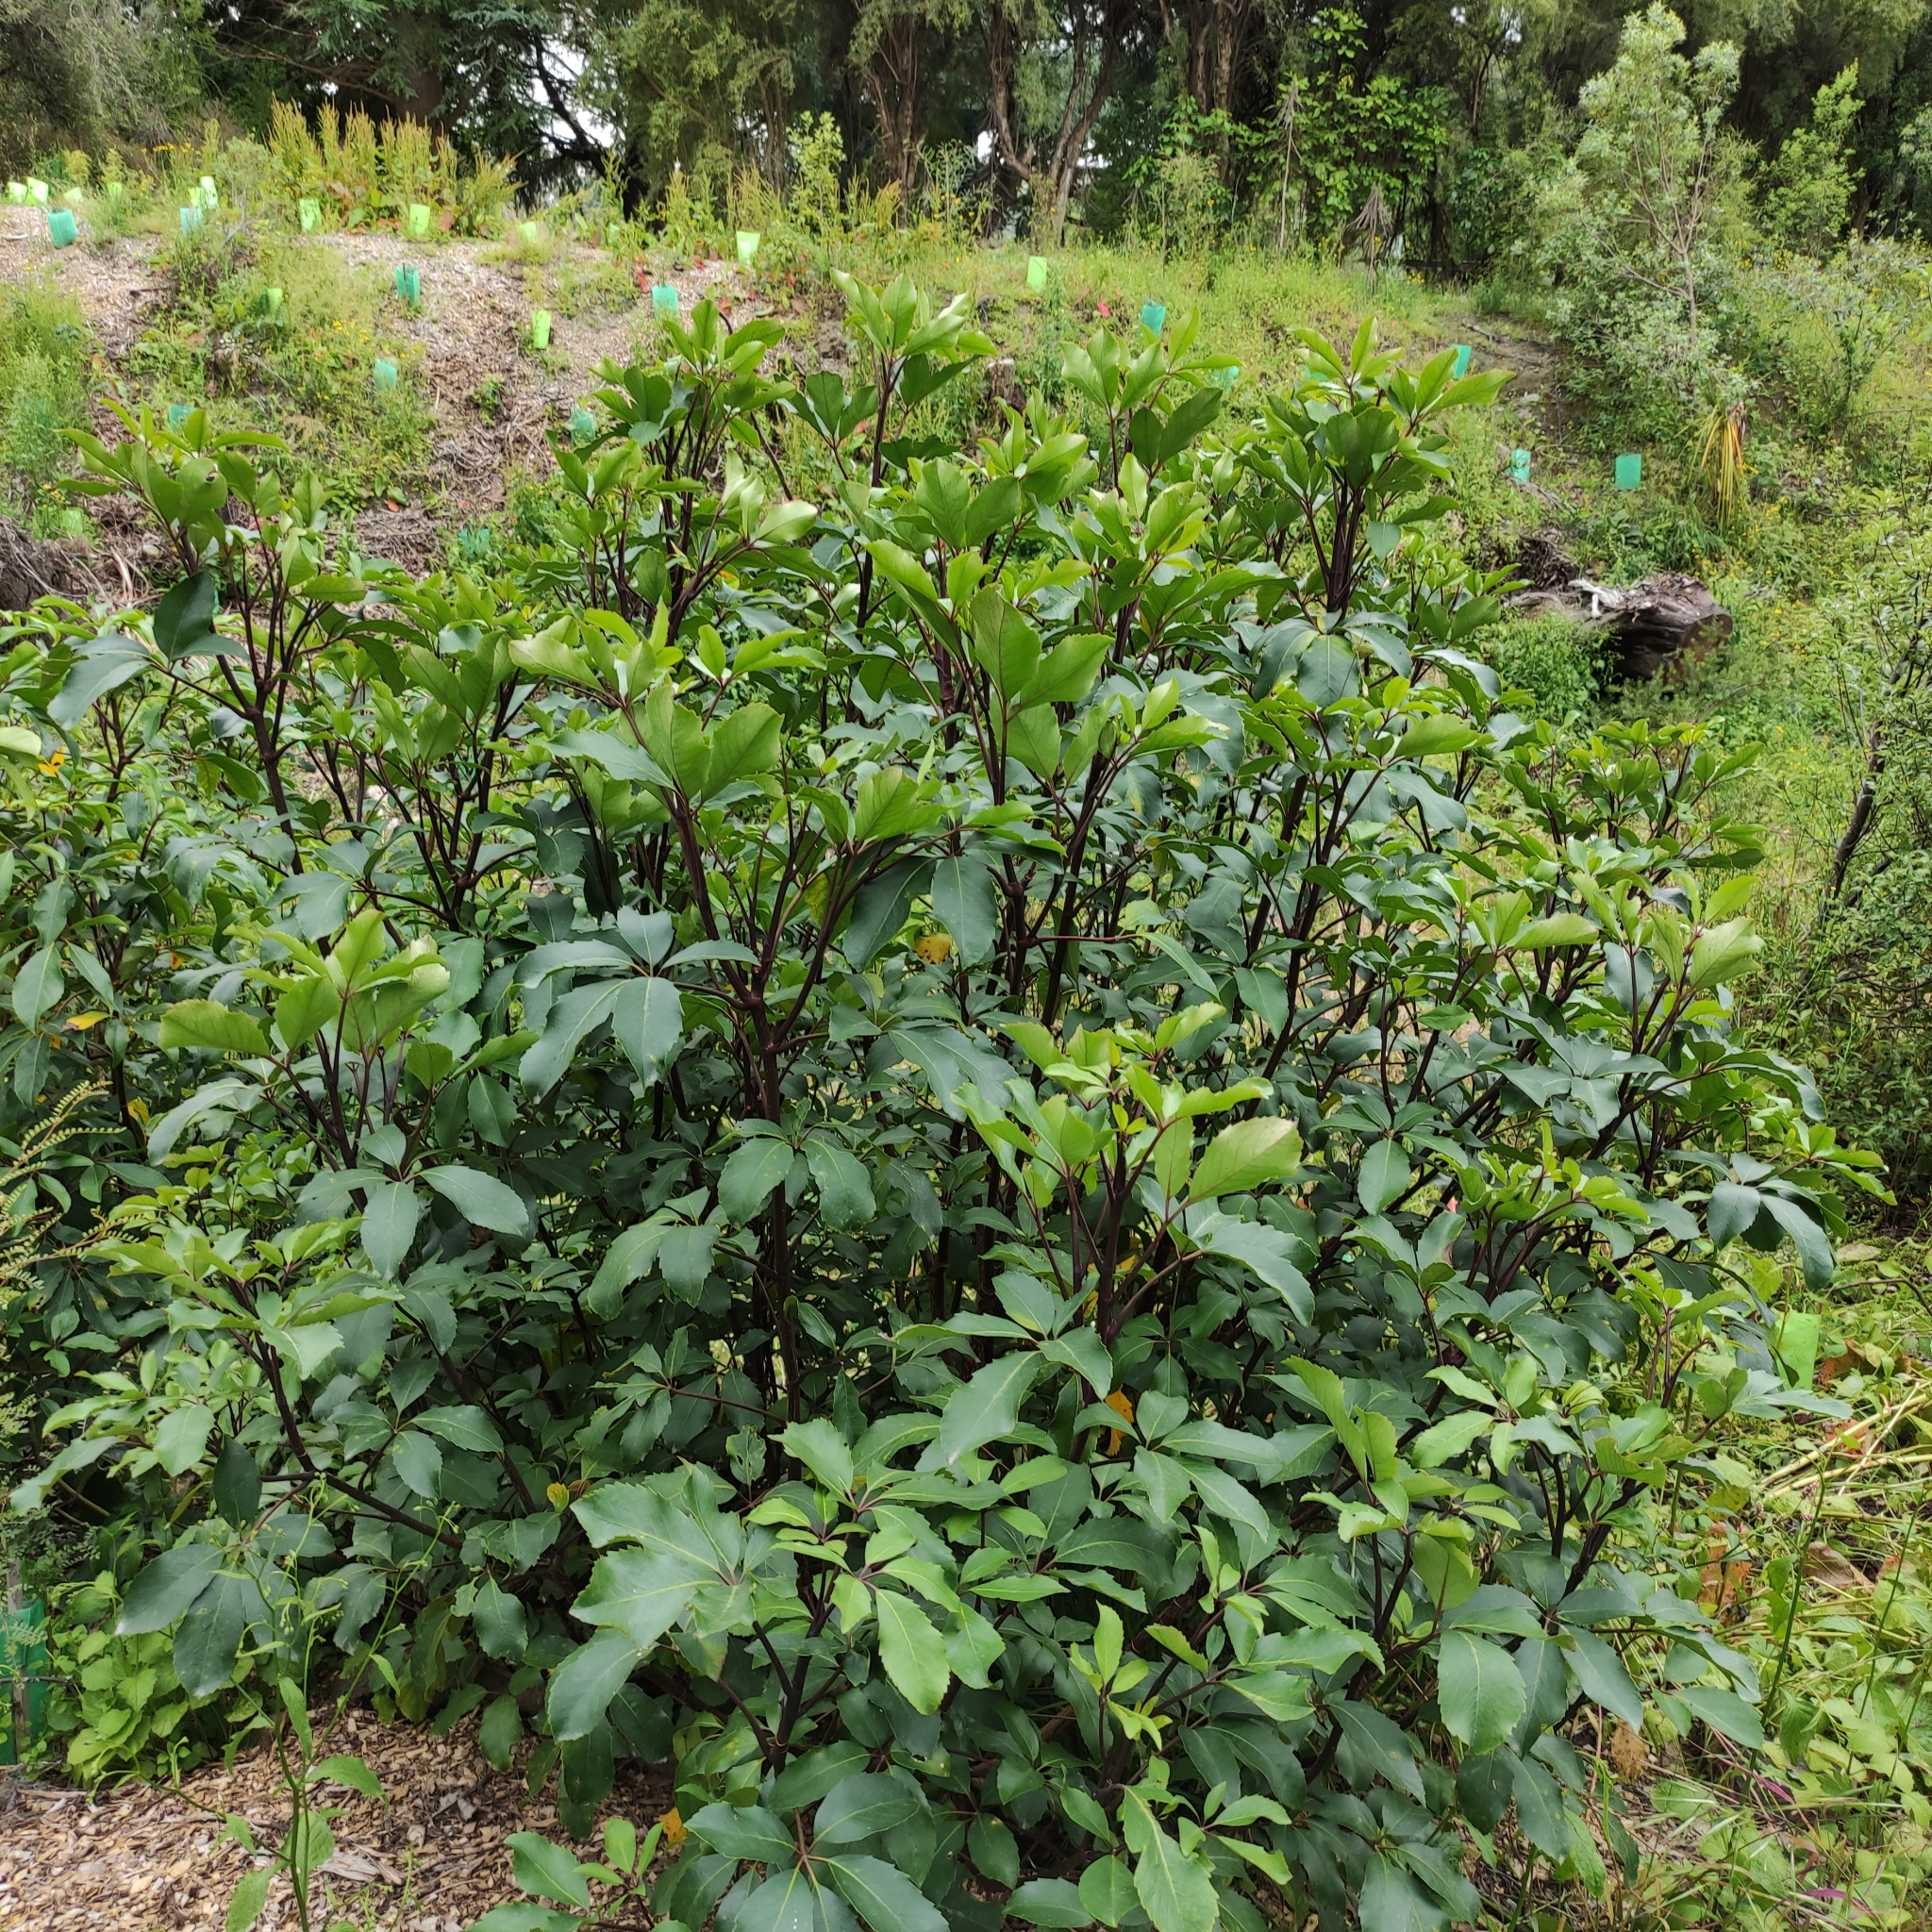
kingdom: Plantae
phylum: Tracheophyta
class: Magnoliopsida
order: Apiales
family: Araliaceae
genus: Neopanax
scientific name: Neopanax arboreus
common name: Five-fingers
